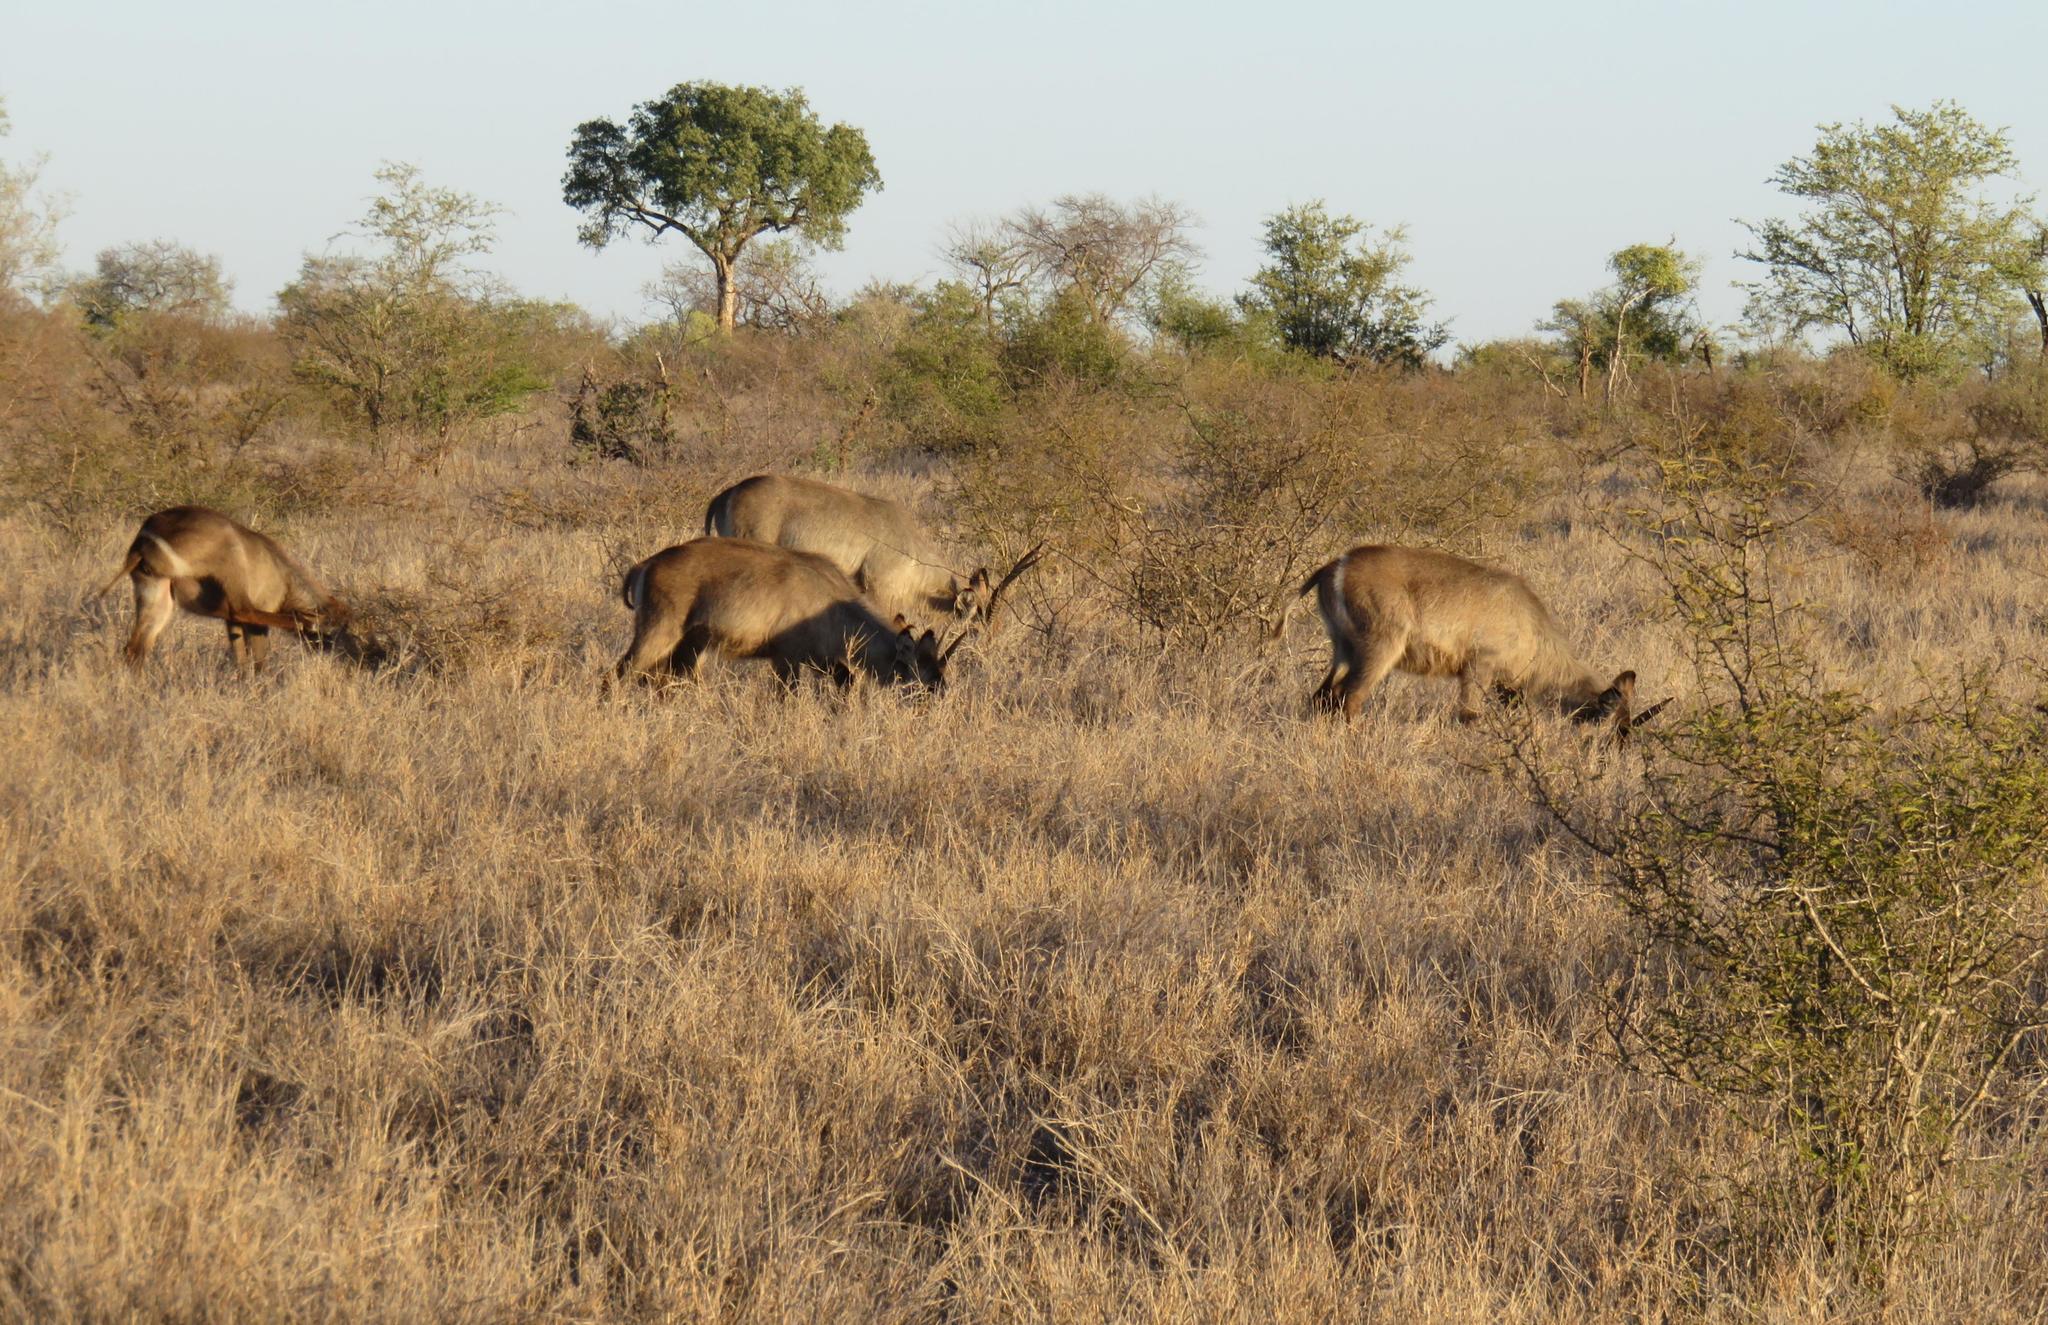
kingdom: Animalia
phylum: Chordata
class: Mammalia
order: Artiodactyla
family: Bovidae
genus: Kobus
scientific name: Kobus ellipsiprymnus
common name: Waterbuck
